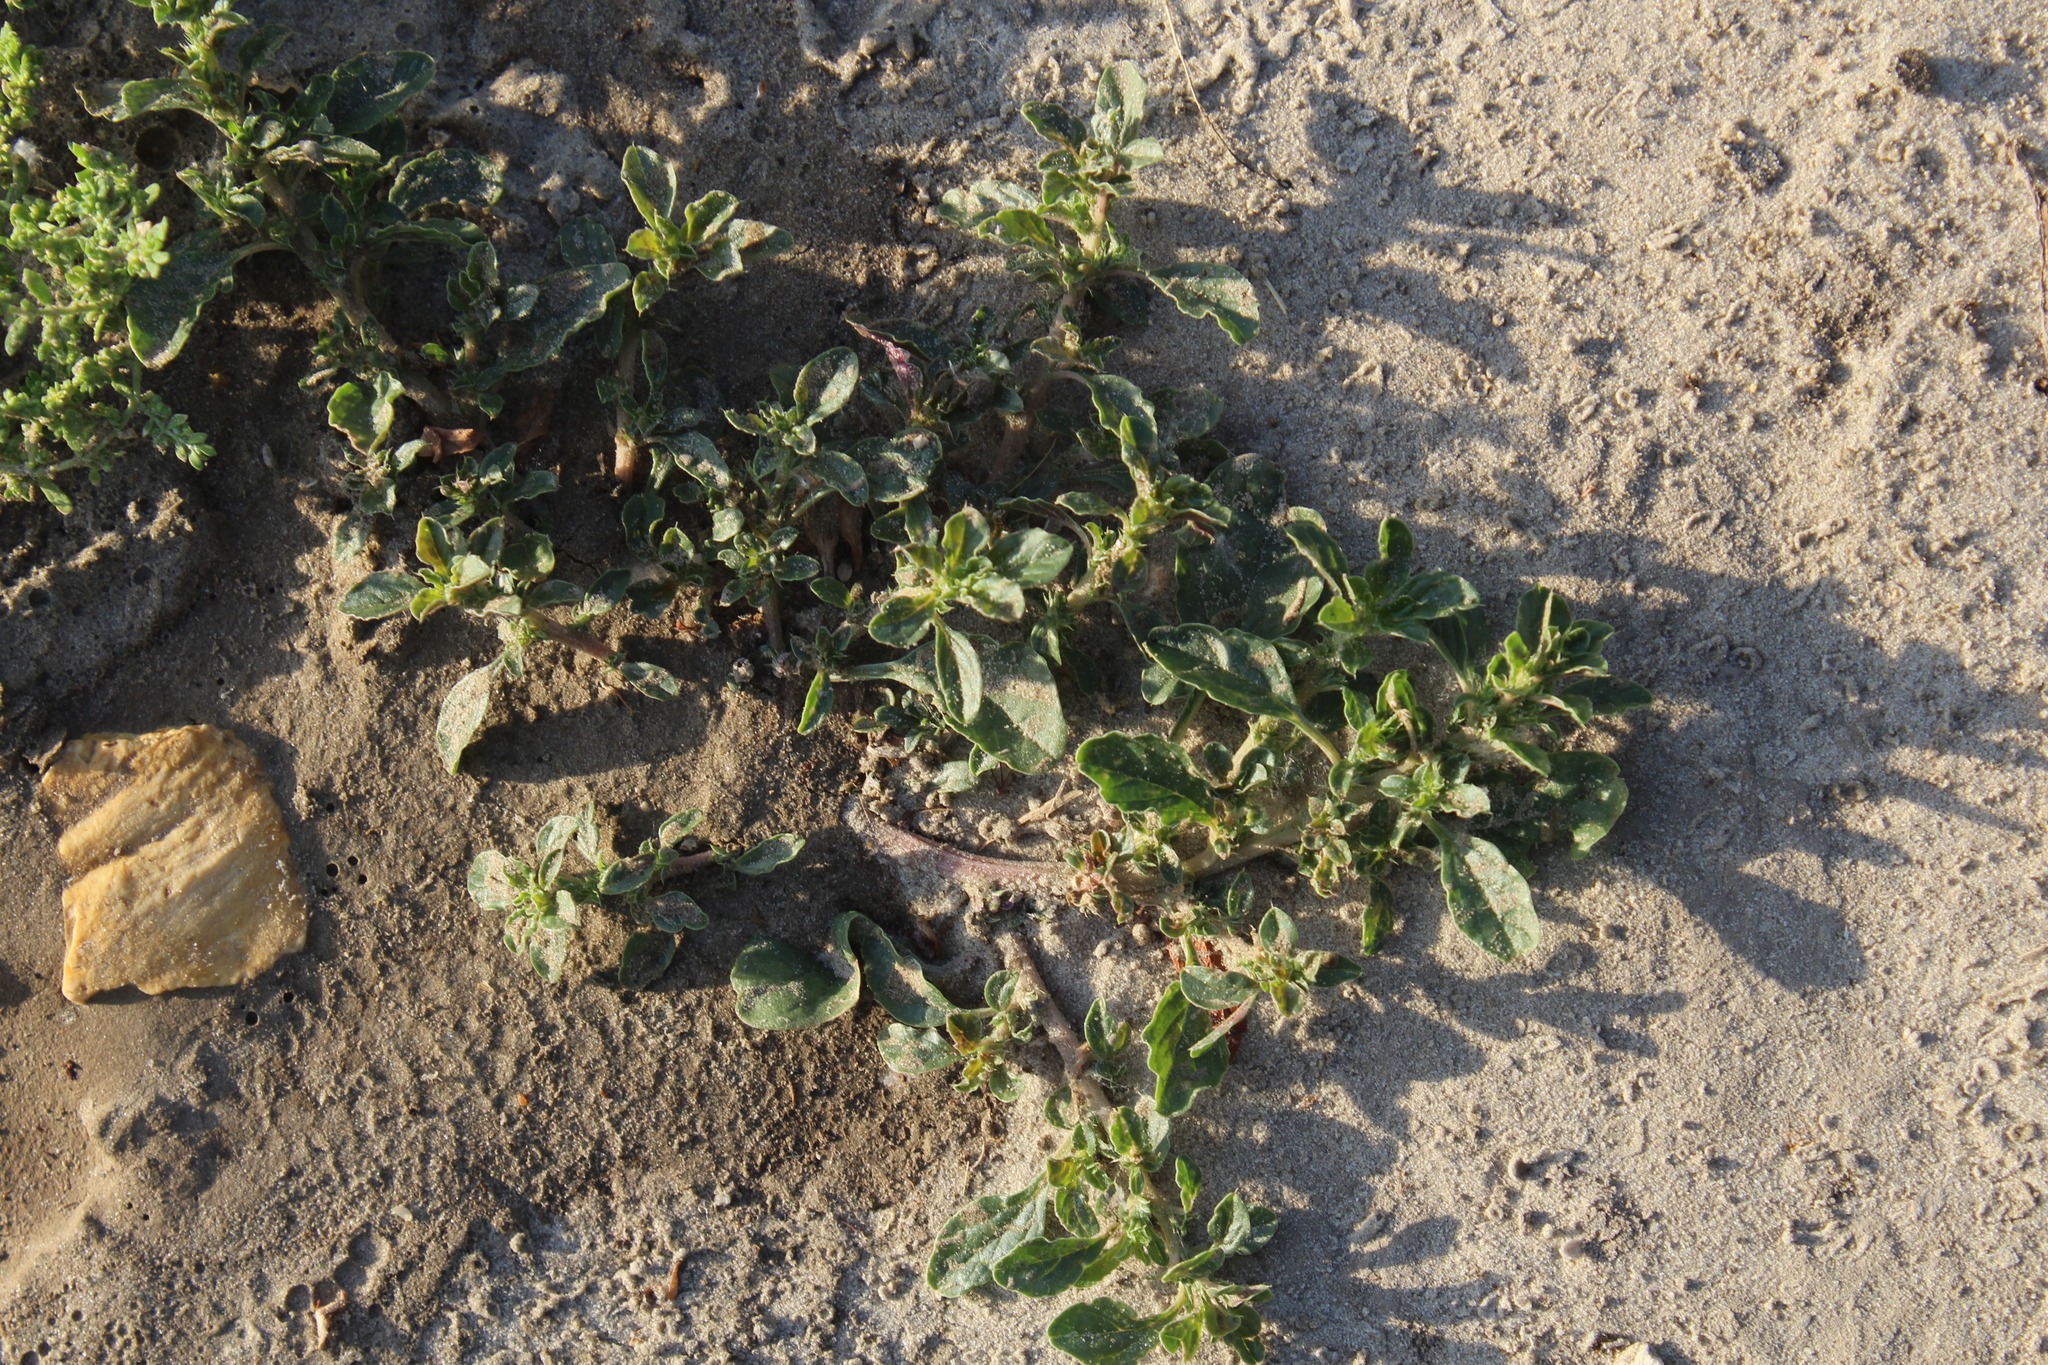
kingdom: Plantae
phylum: Tracheophyta
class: Magnoliopsida
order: Caryophyllales
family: Amaranthaceae
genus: Amaranthus
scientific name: Amaranthus albus
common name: White pigweed
